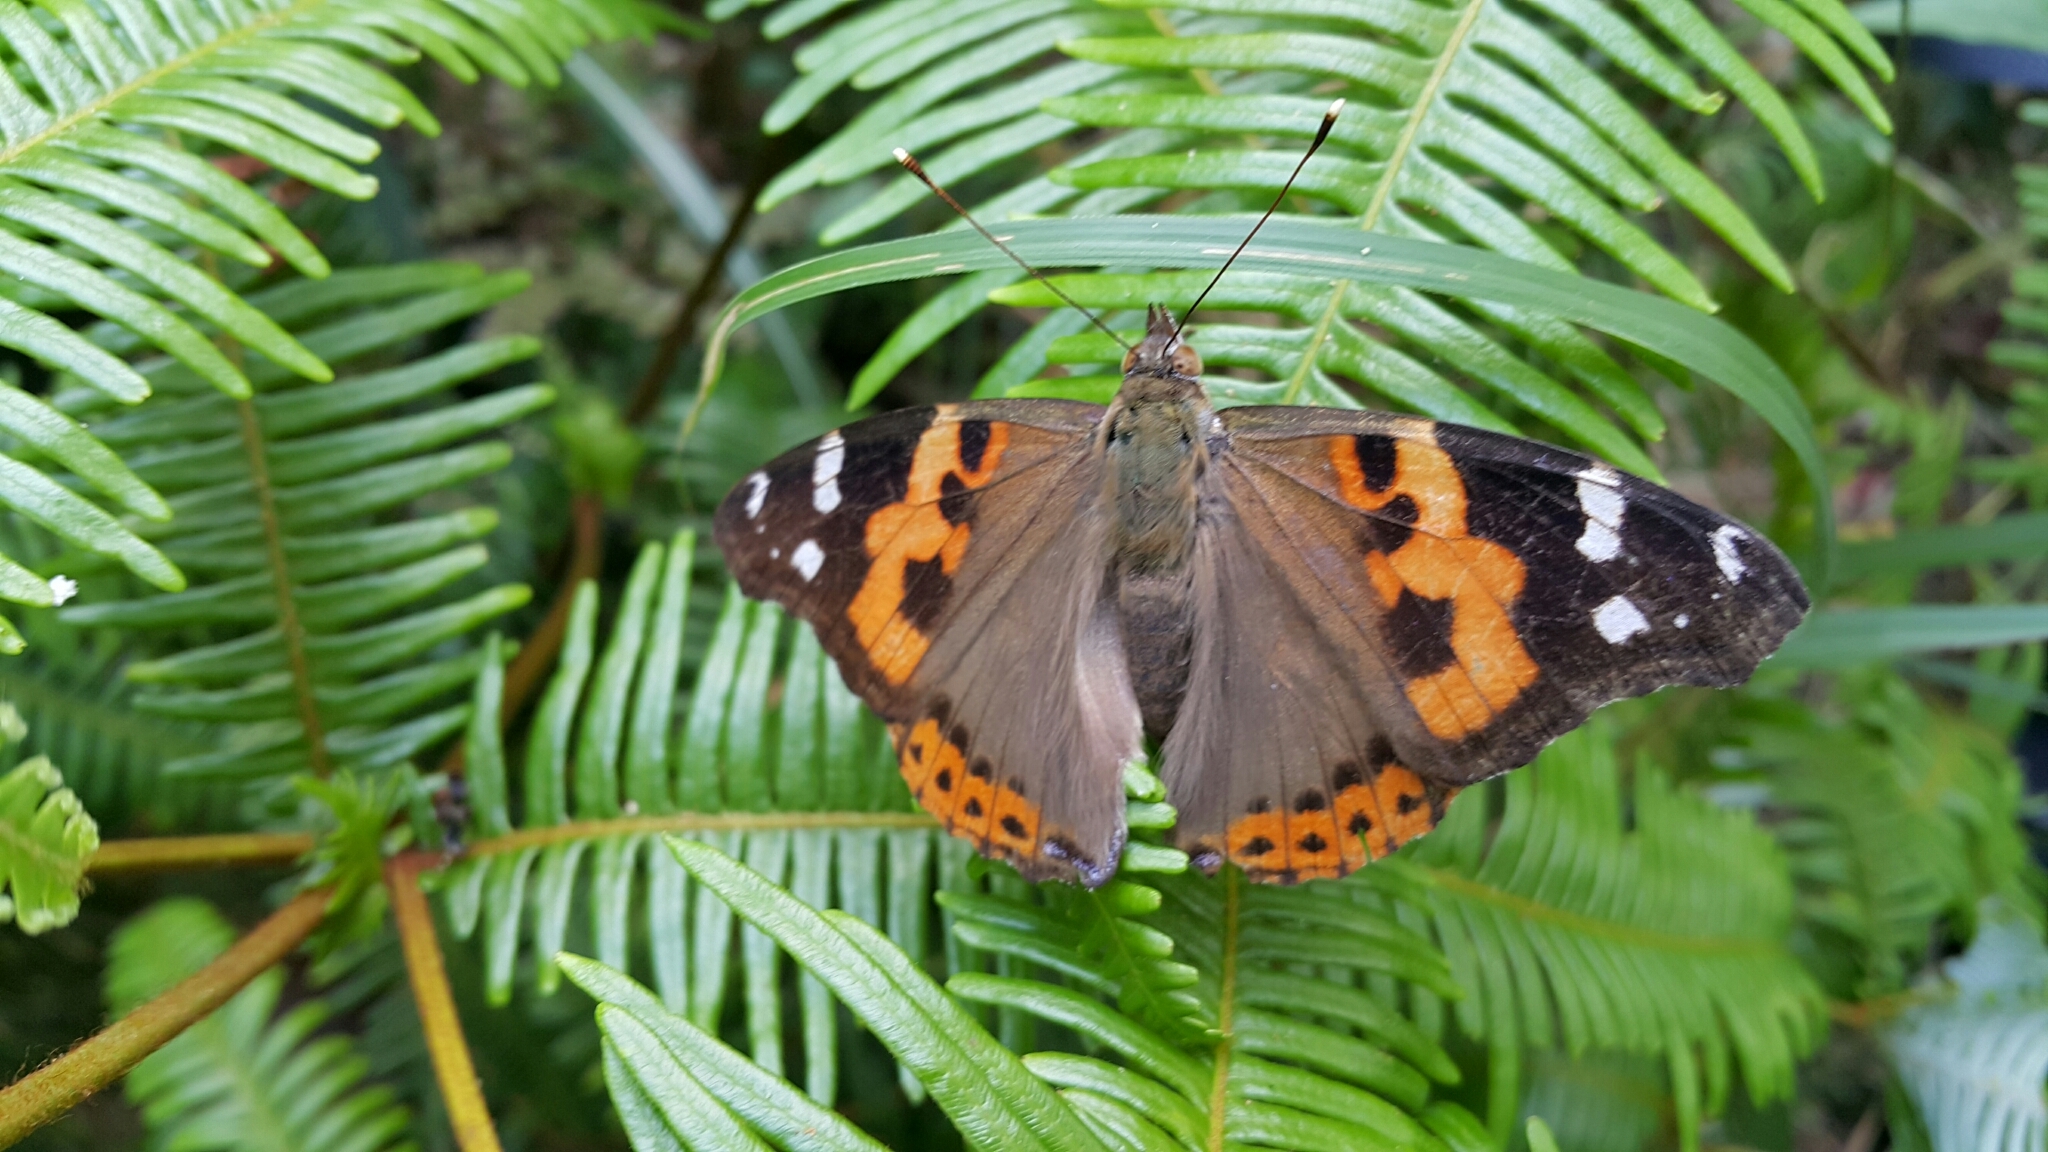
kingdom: Animalia
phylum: Arthropoda
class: Insecta
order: Lepidoptera
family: Nymphalidae
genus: Vanessa
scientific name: Vanessa indica
